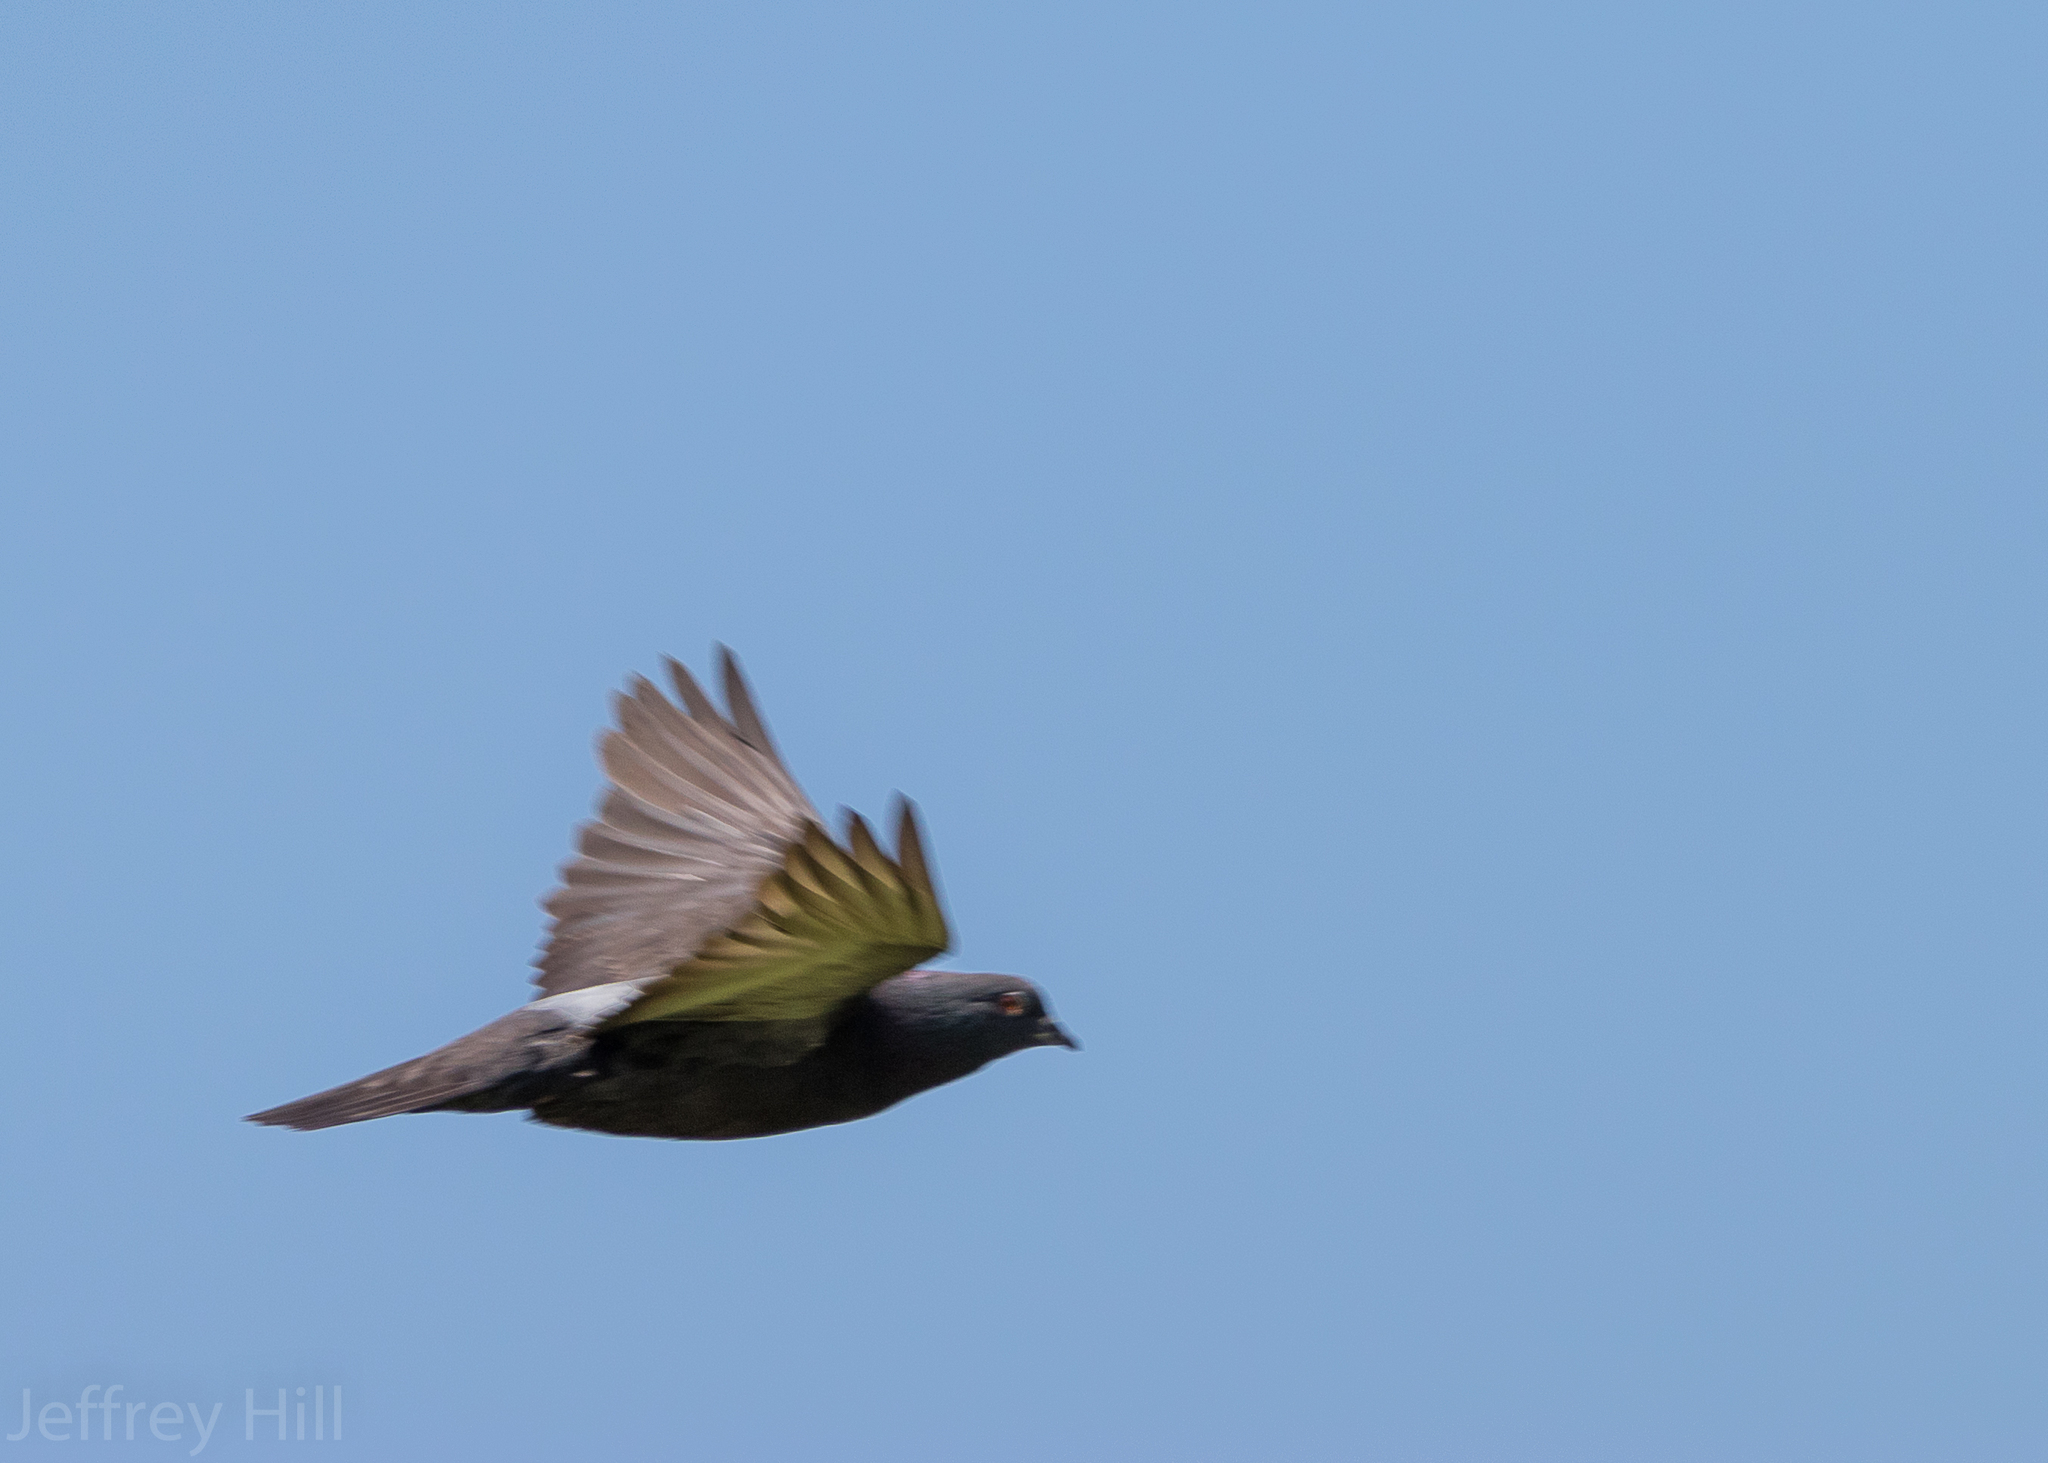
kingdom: Animalia
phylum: Chordata
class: Aves
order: Columbiformes
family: Columbidae
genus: Columba
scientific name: Columba livia
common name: Rock pigeon
